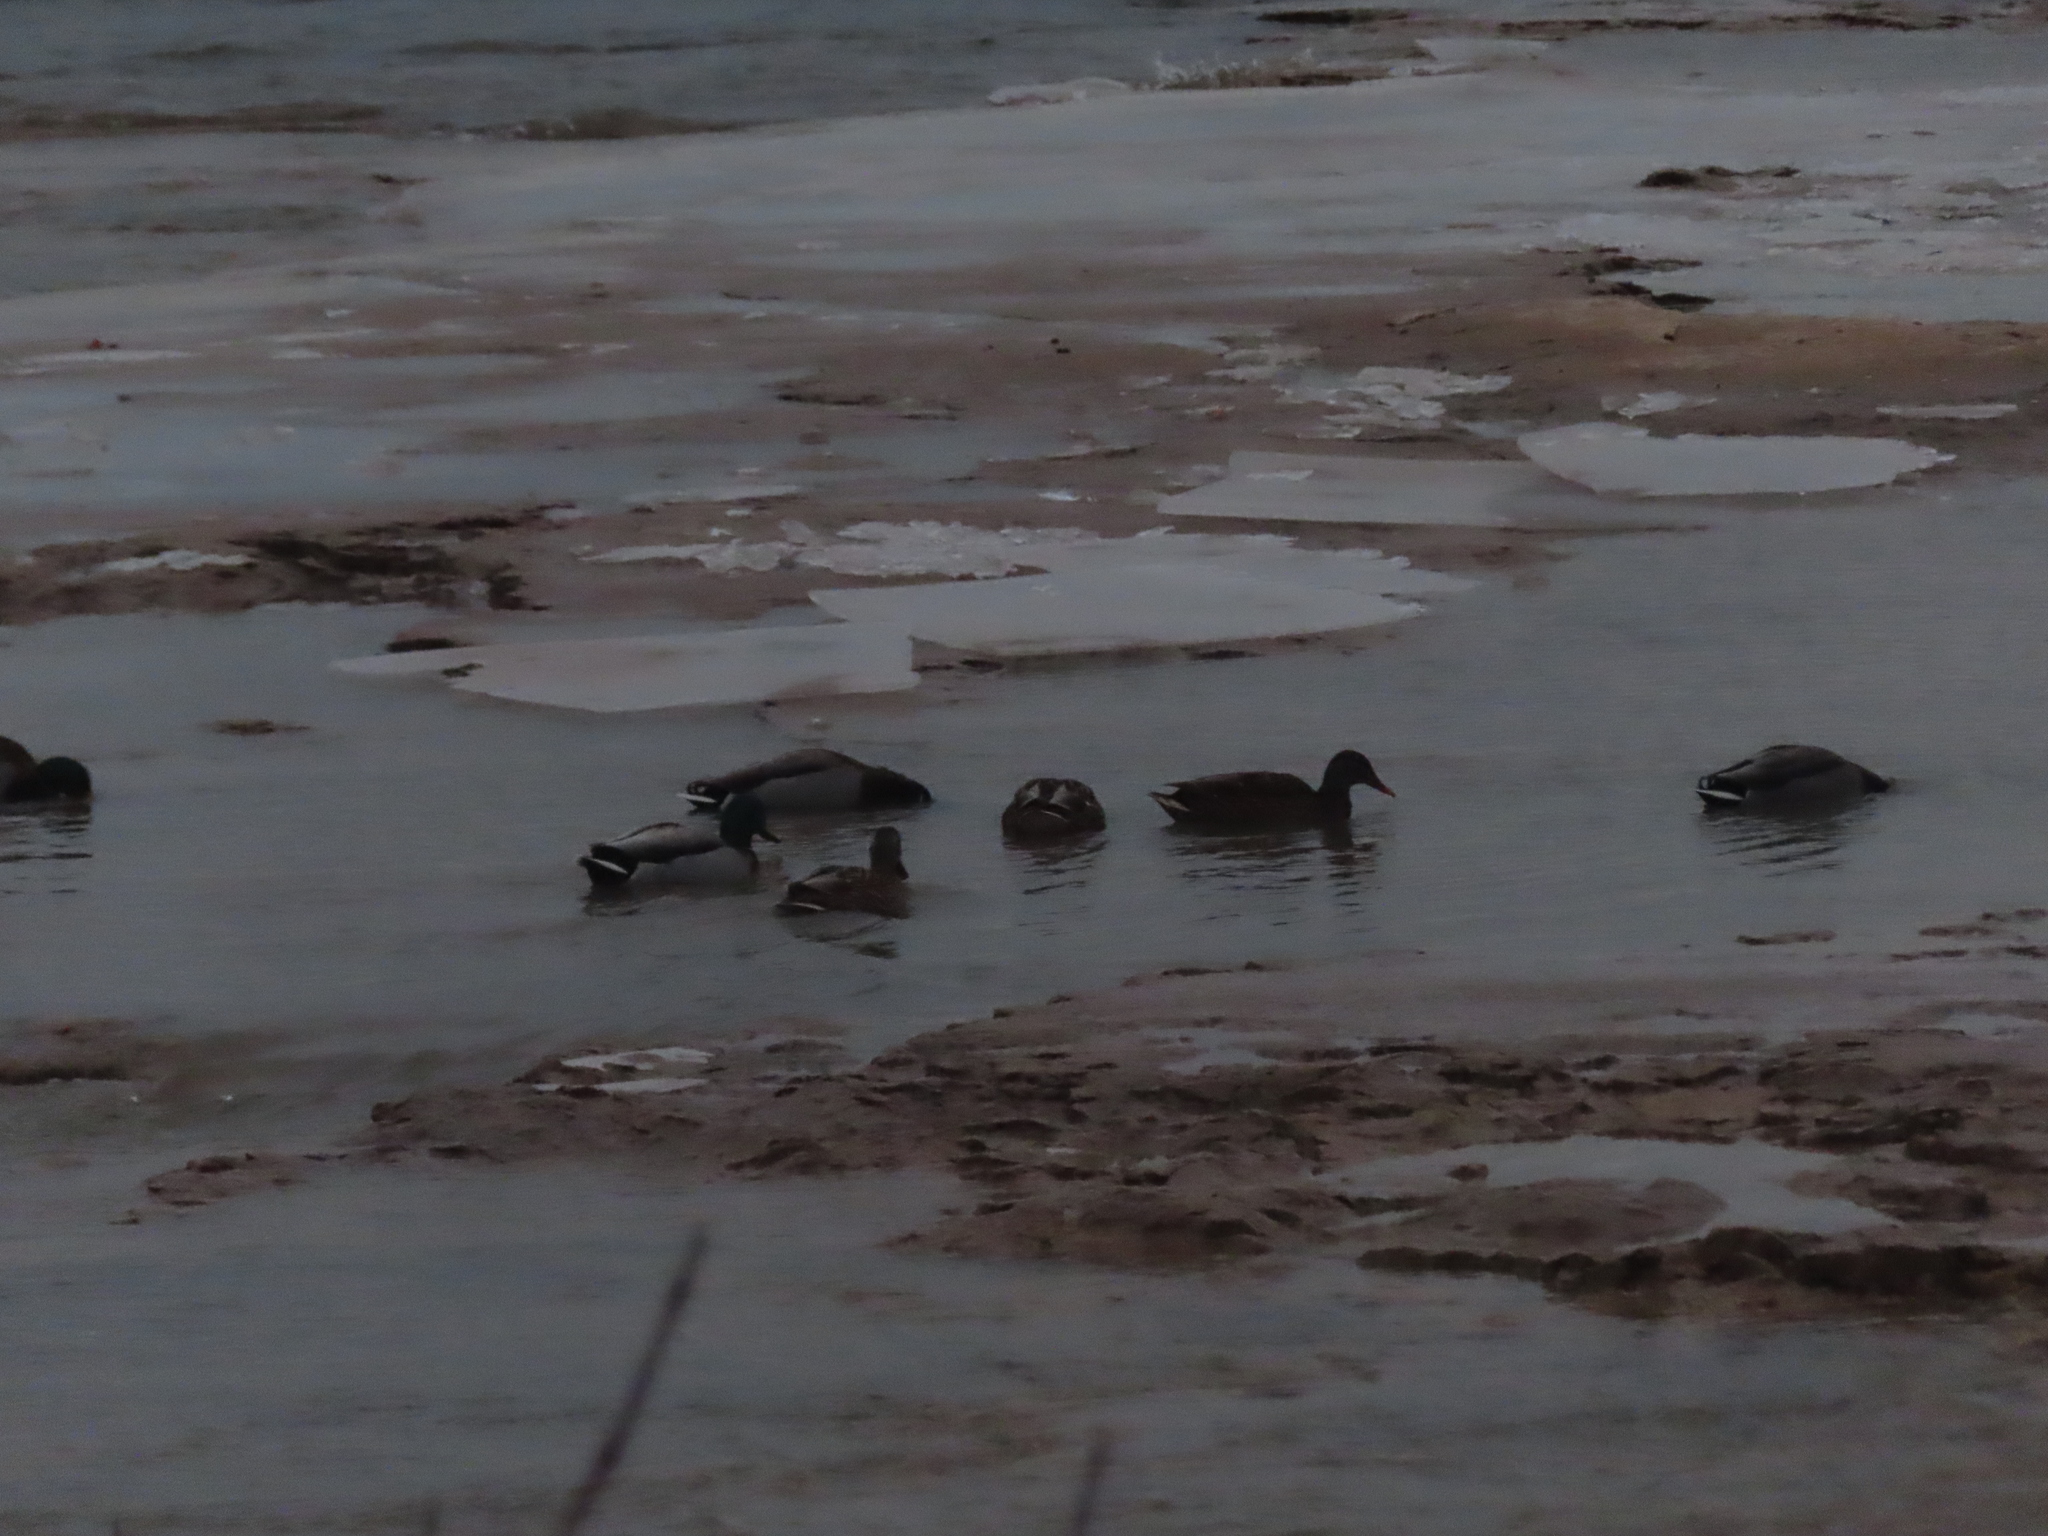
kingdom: Animalia
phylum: Chordata
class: Aves
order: Anseriformes
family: Anatidae
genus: Anas
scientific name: Anas platyrhynchos
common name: Mallard
